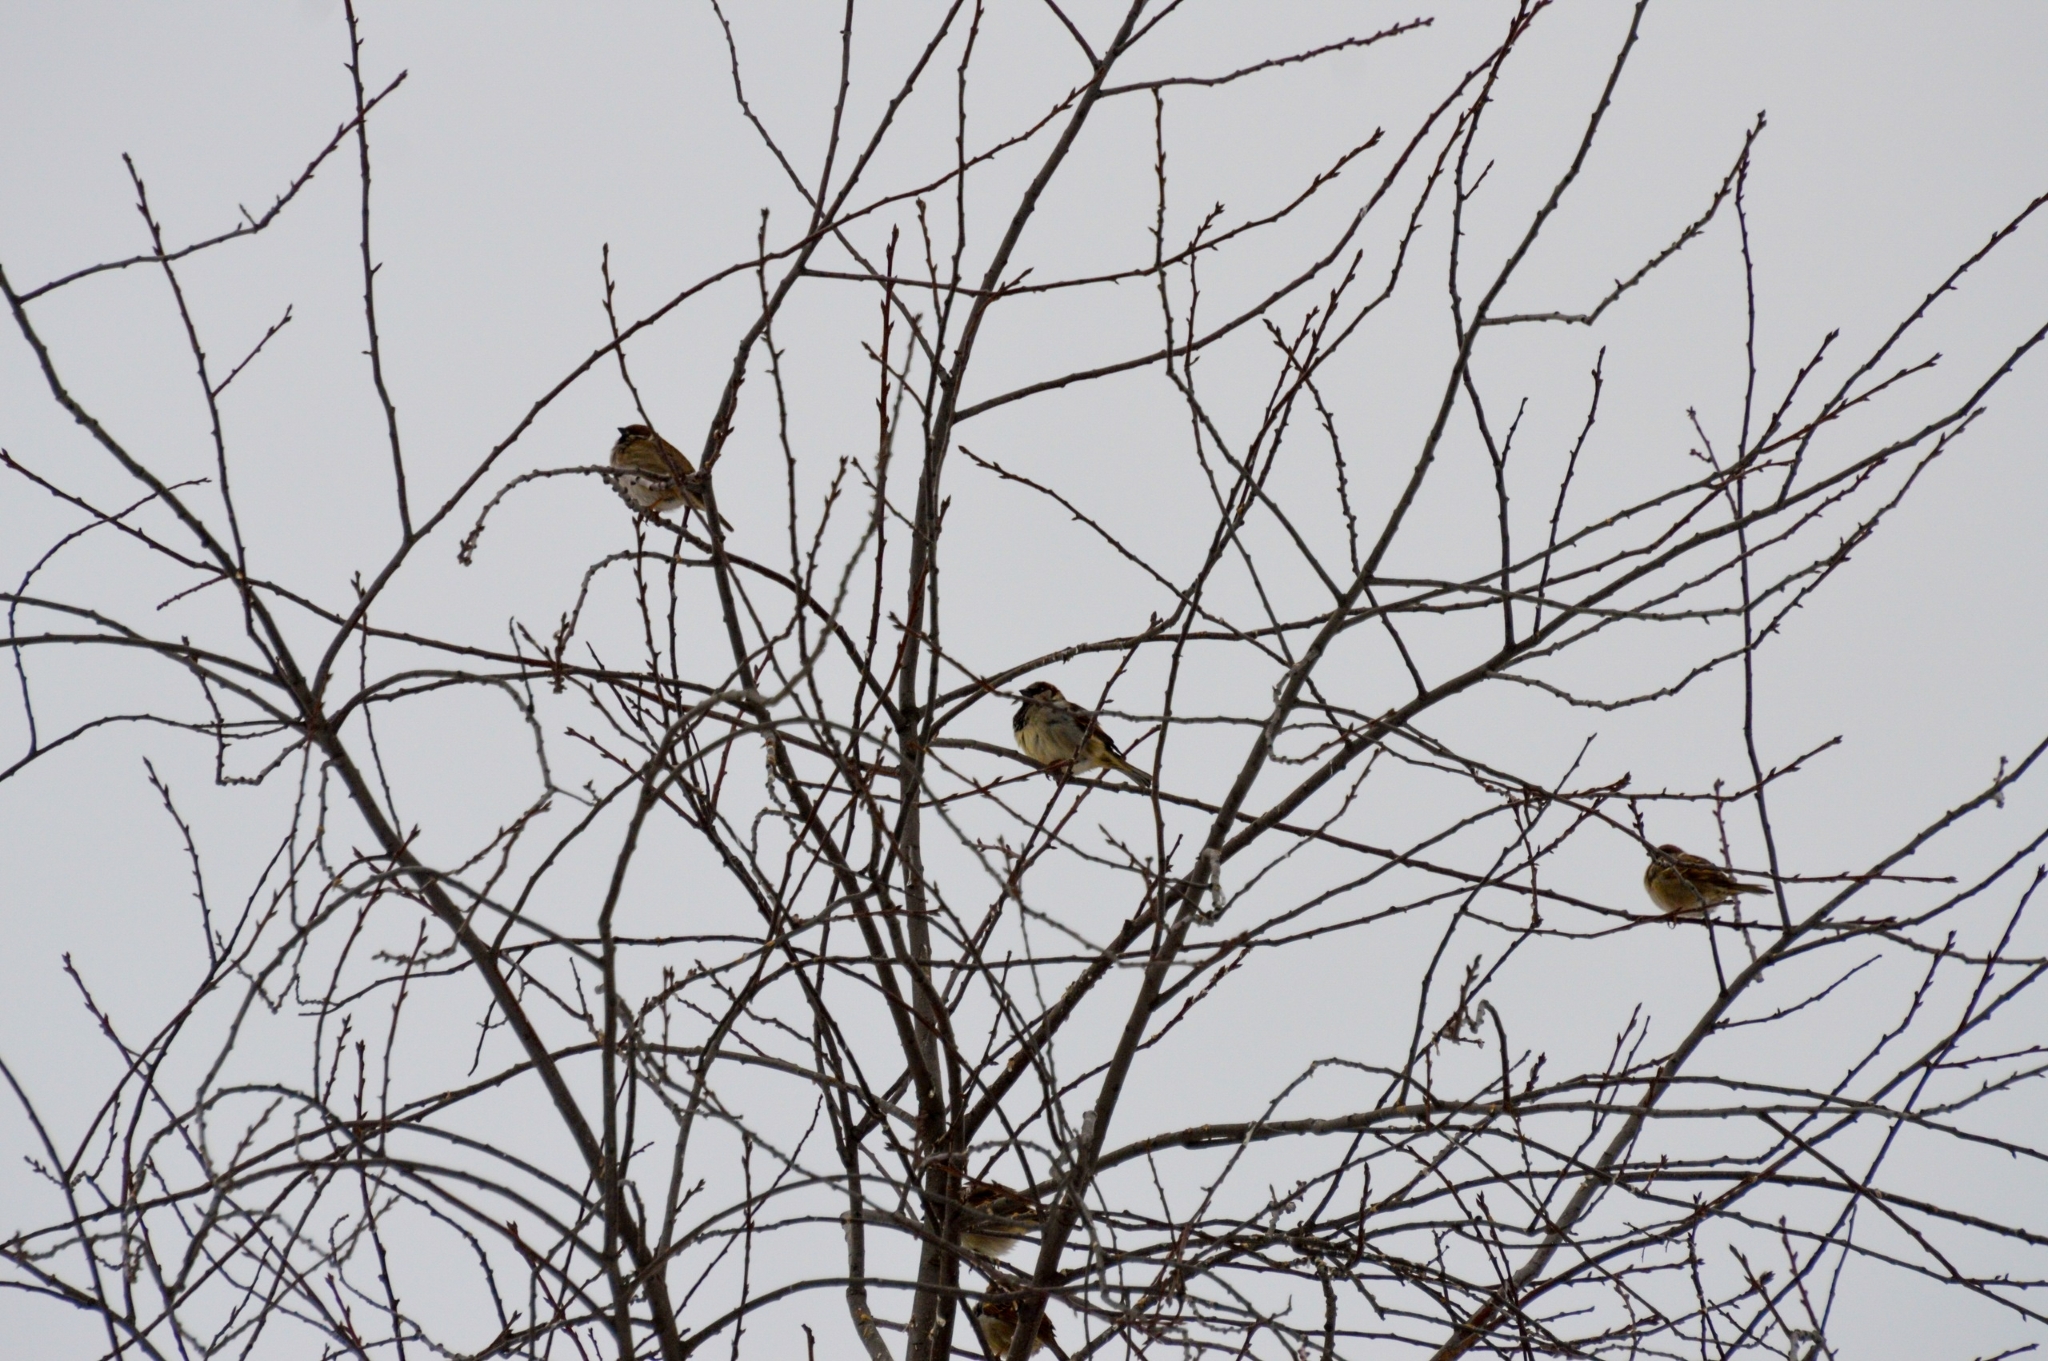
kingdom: Animalia
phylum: Chordata
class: Aves
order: Passeriformes
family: Passeridae
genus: Passer
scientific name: Passer montanus
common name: Eurasian tree sparrow
